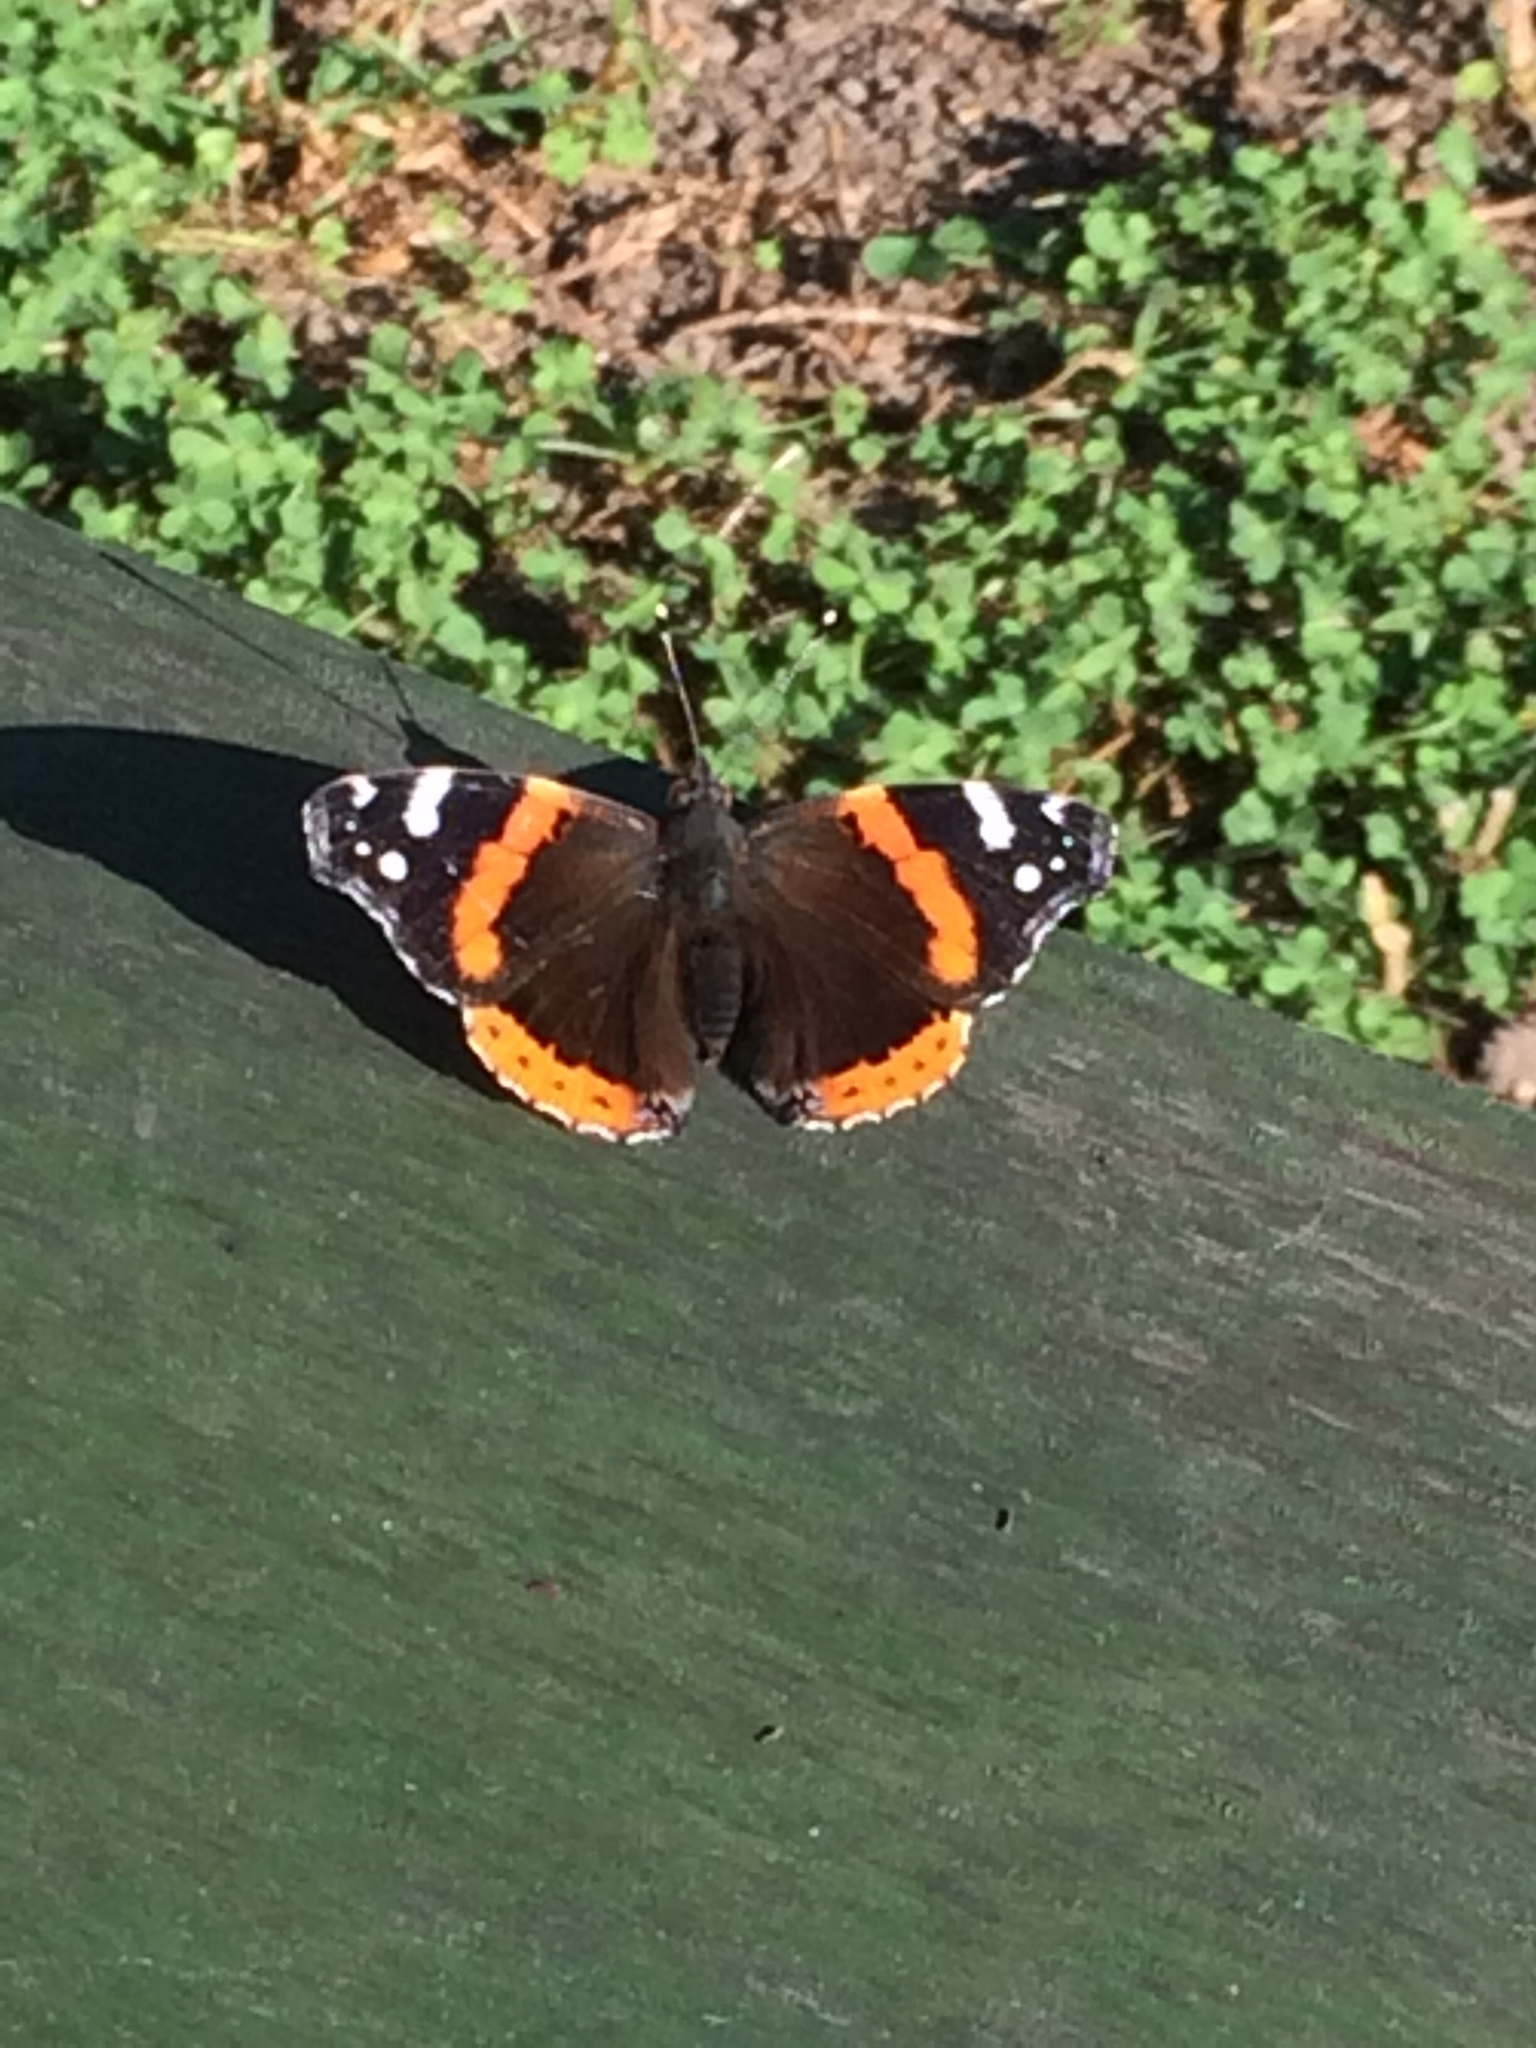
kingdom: Animalia
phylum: Arthropoda
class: Insecta
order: Lepidoptera
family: Nymphalidae
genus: Vanessa
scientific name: Vanessa atalanta
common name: Red admiral
